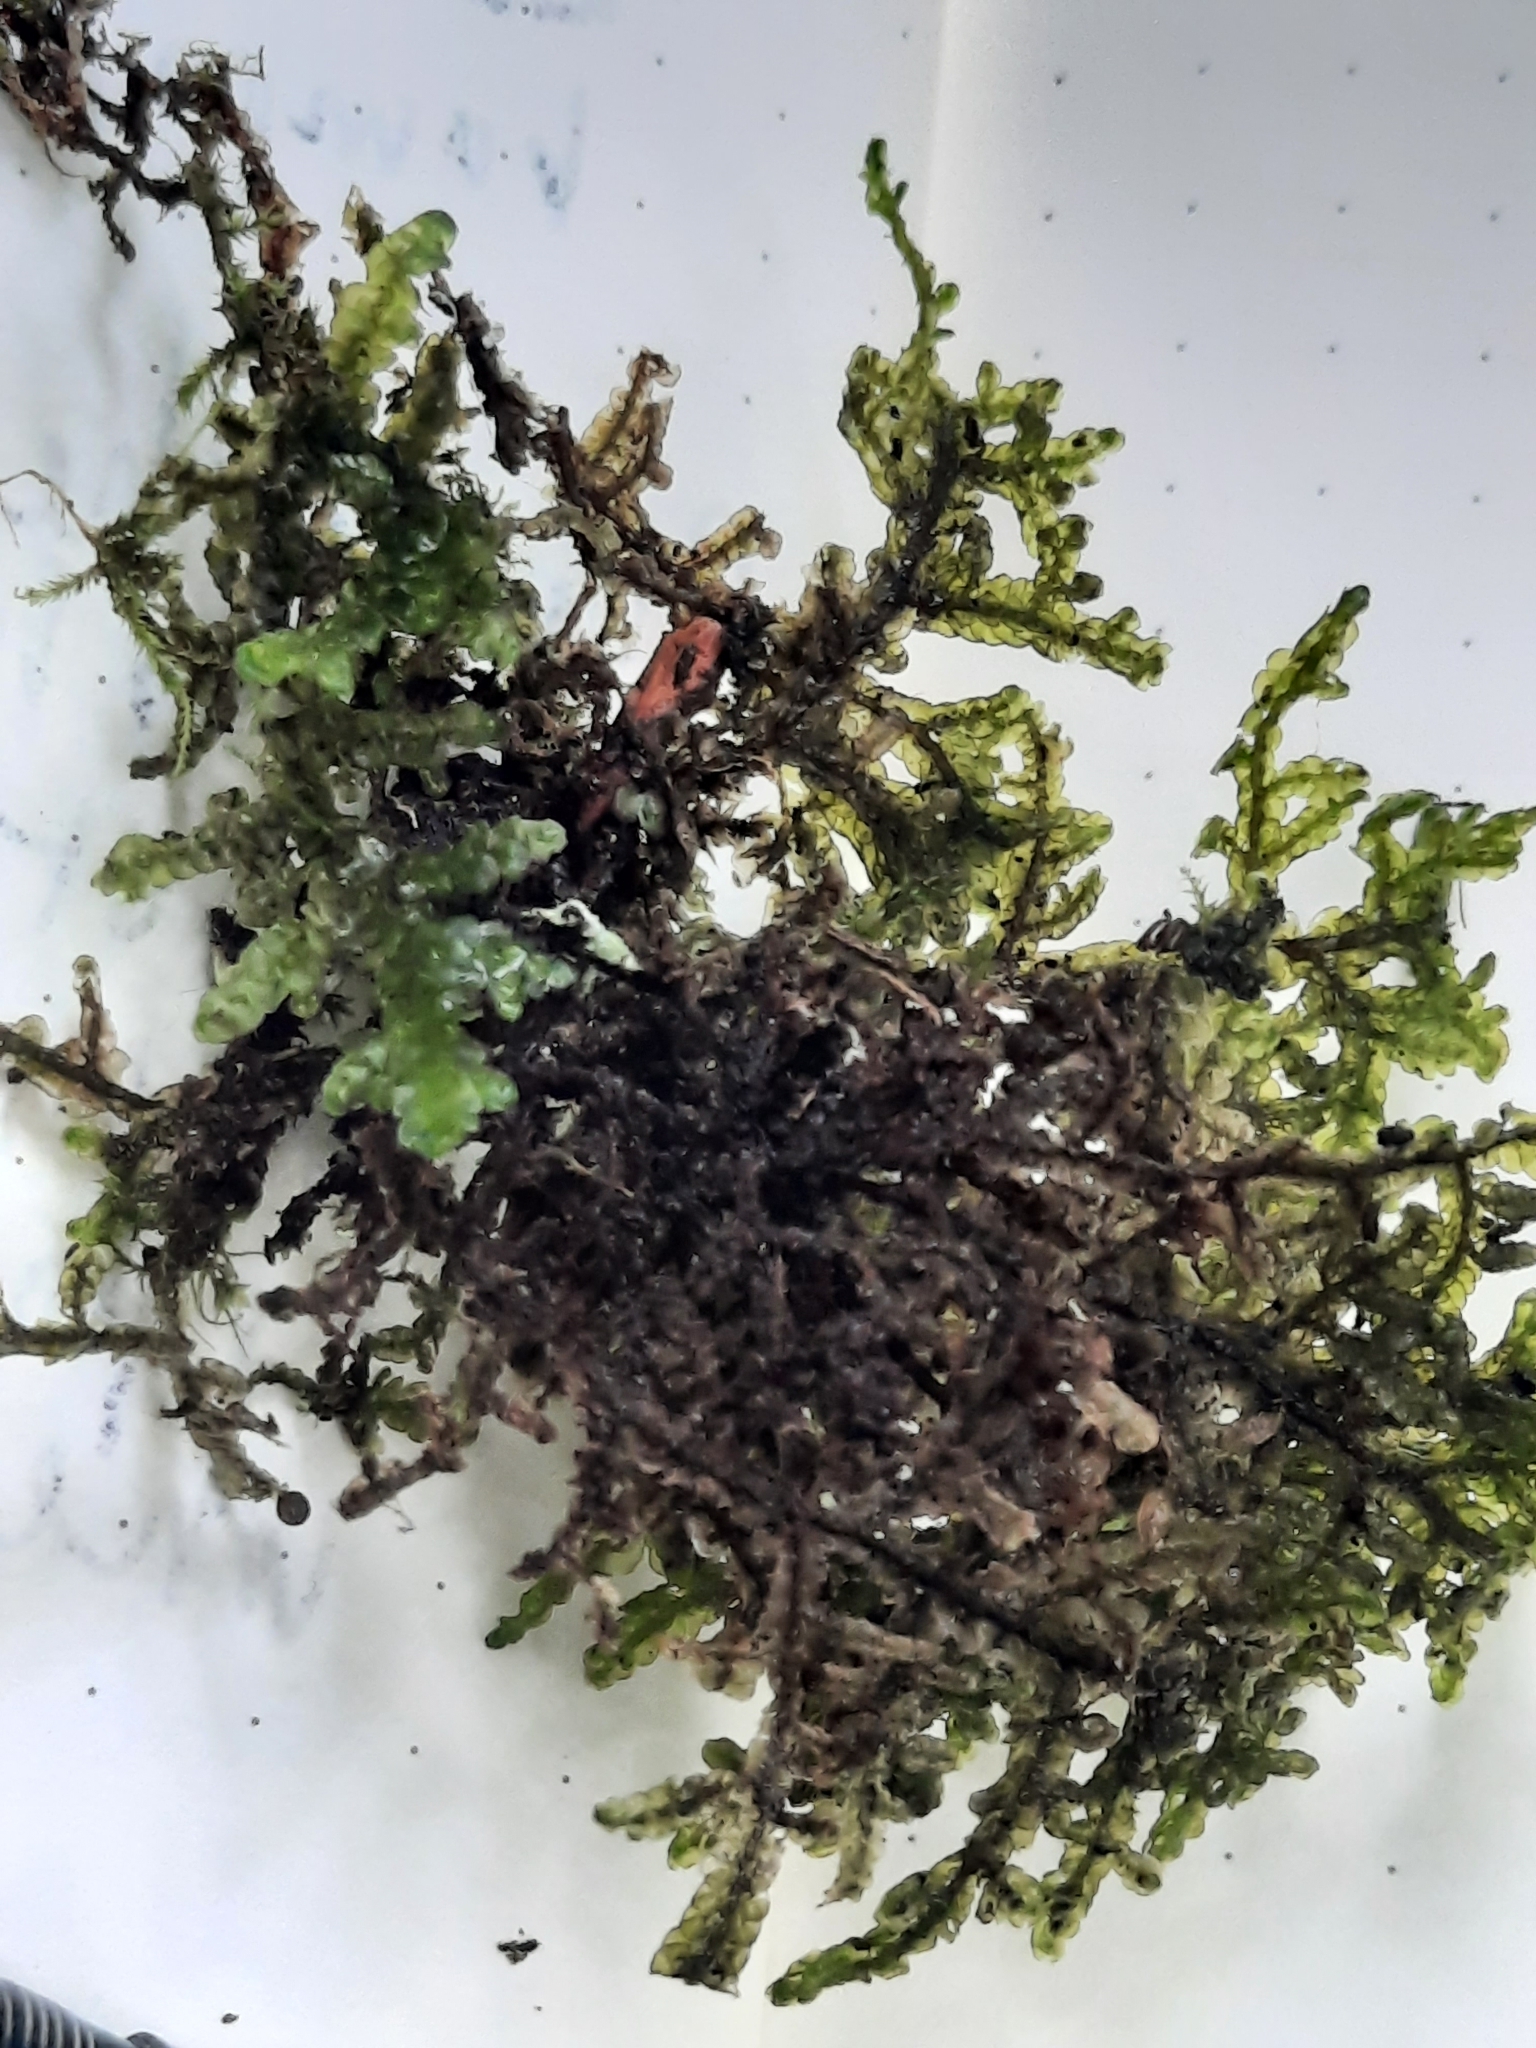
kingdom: Plantae
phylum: Marchantiophyta
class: Jungermanniopsida
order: Porellales
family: Porellaceae
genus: Porella
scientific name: Porella platyphylla
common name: Wall scalewort
